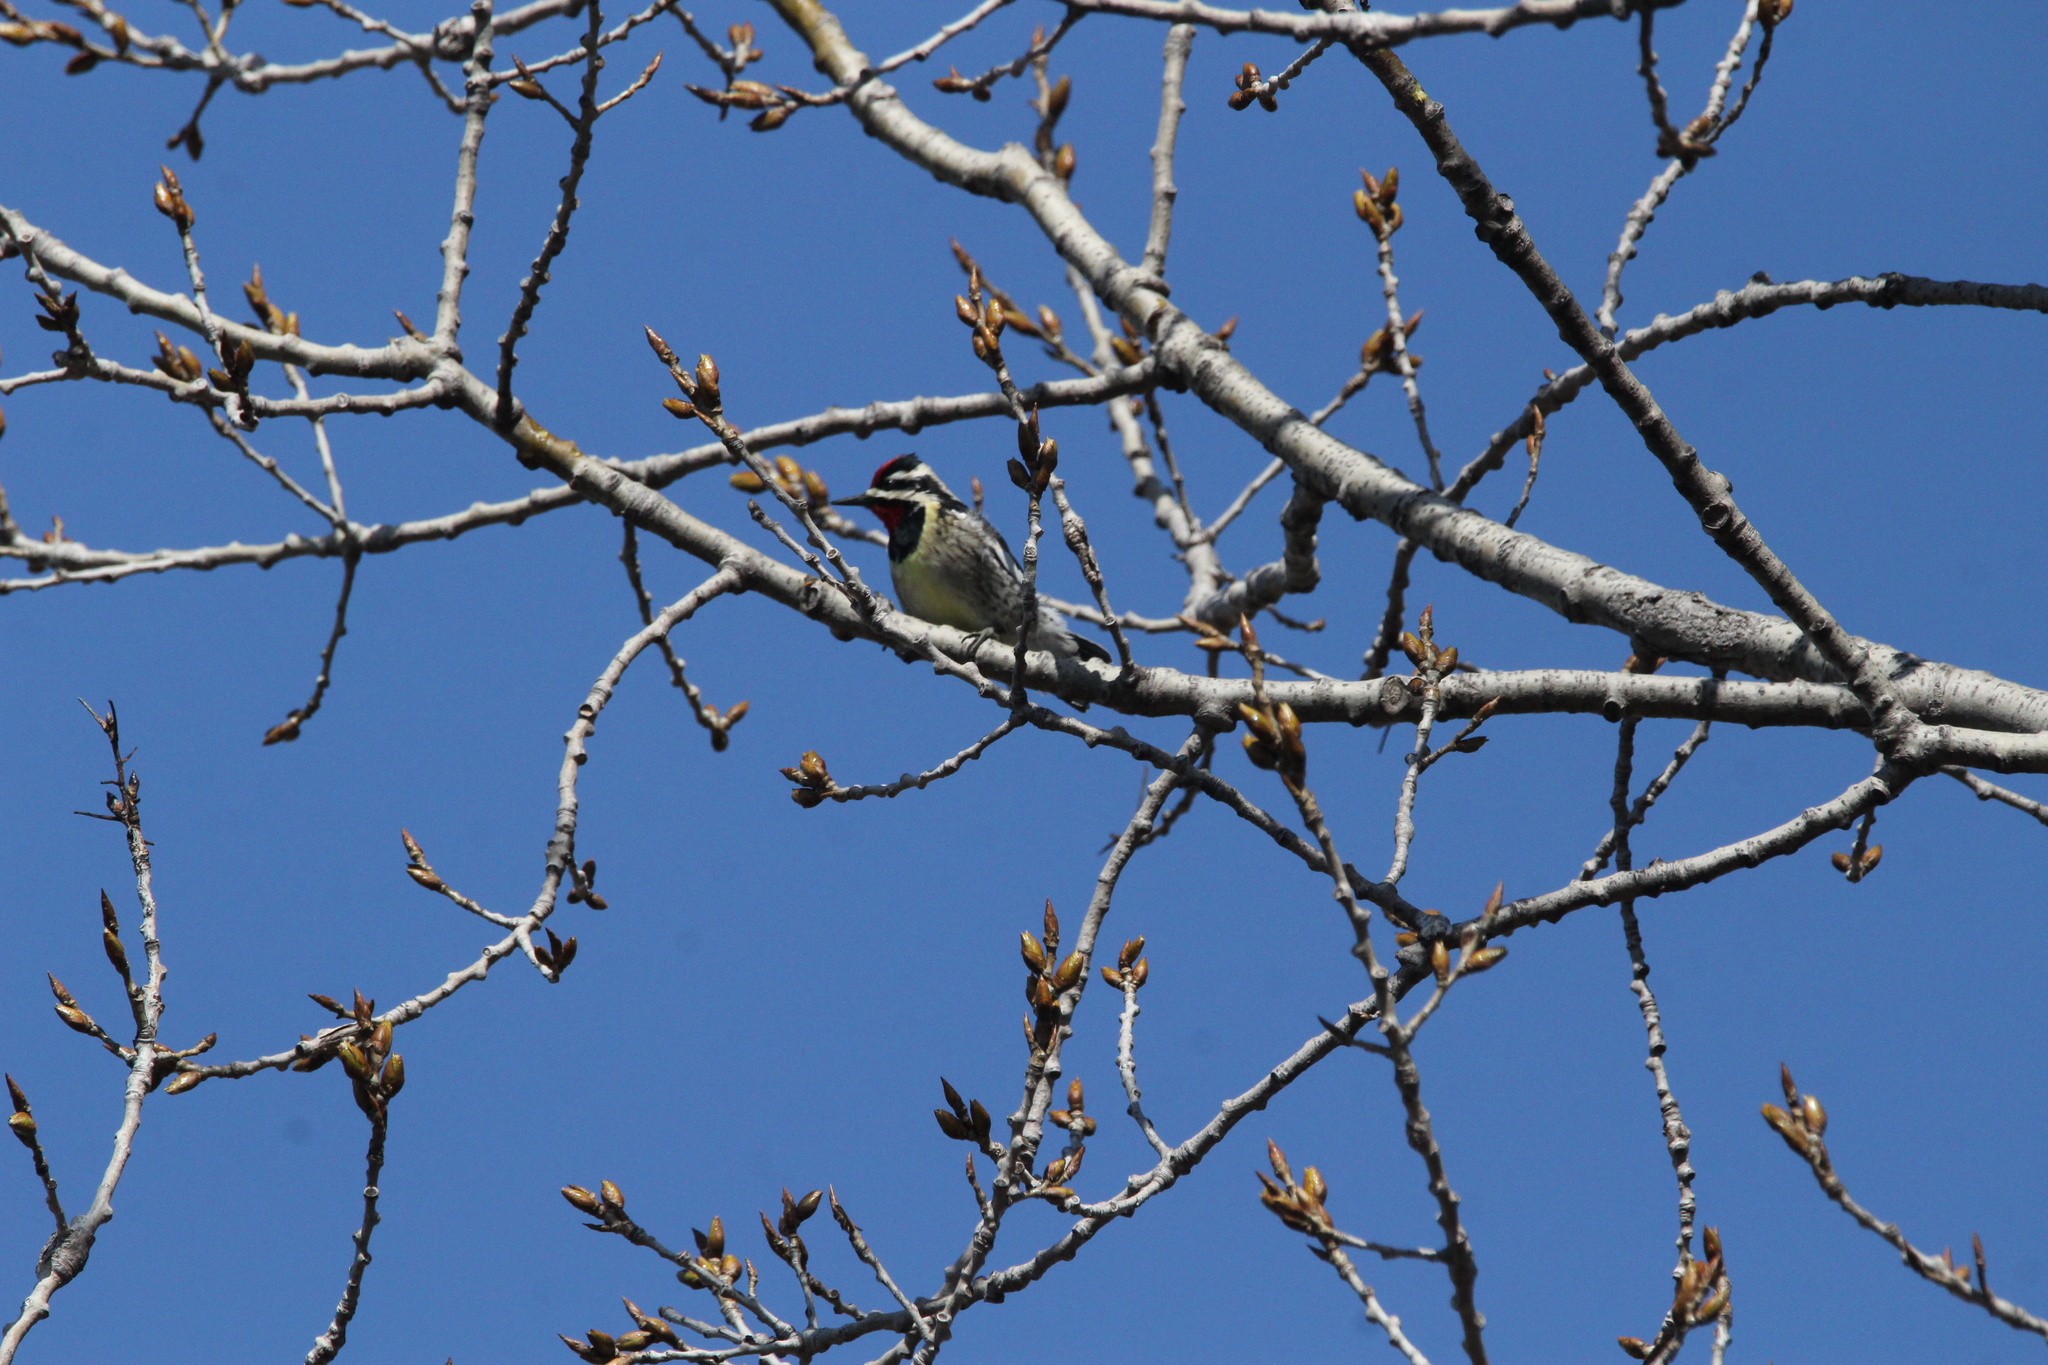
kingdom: Animalia
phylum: Chordata
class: Aves
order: Piciformes
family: Picidae
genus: Sphyrapicus
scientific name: Sphyrapicus varius
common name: Yellow-bellied sapsucker
